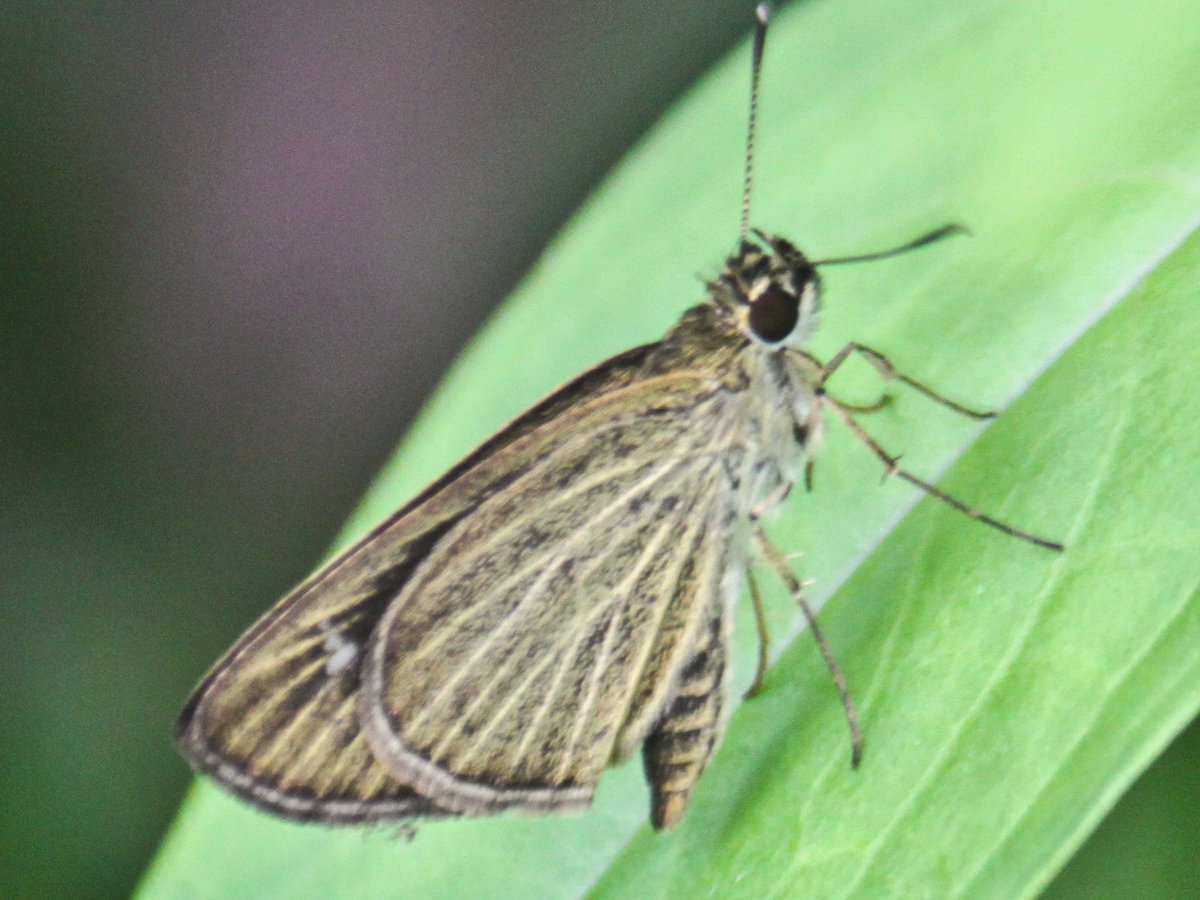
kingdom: Animalia
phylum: Arthropoda
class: Insecta
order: Lepidoptera
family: Hesperiidae
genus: Suada
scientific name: Suada swerga
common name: Grass bob
